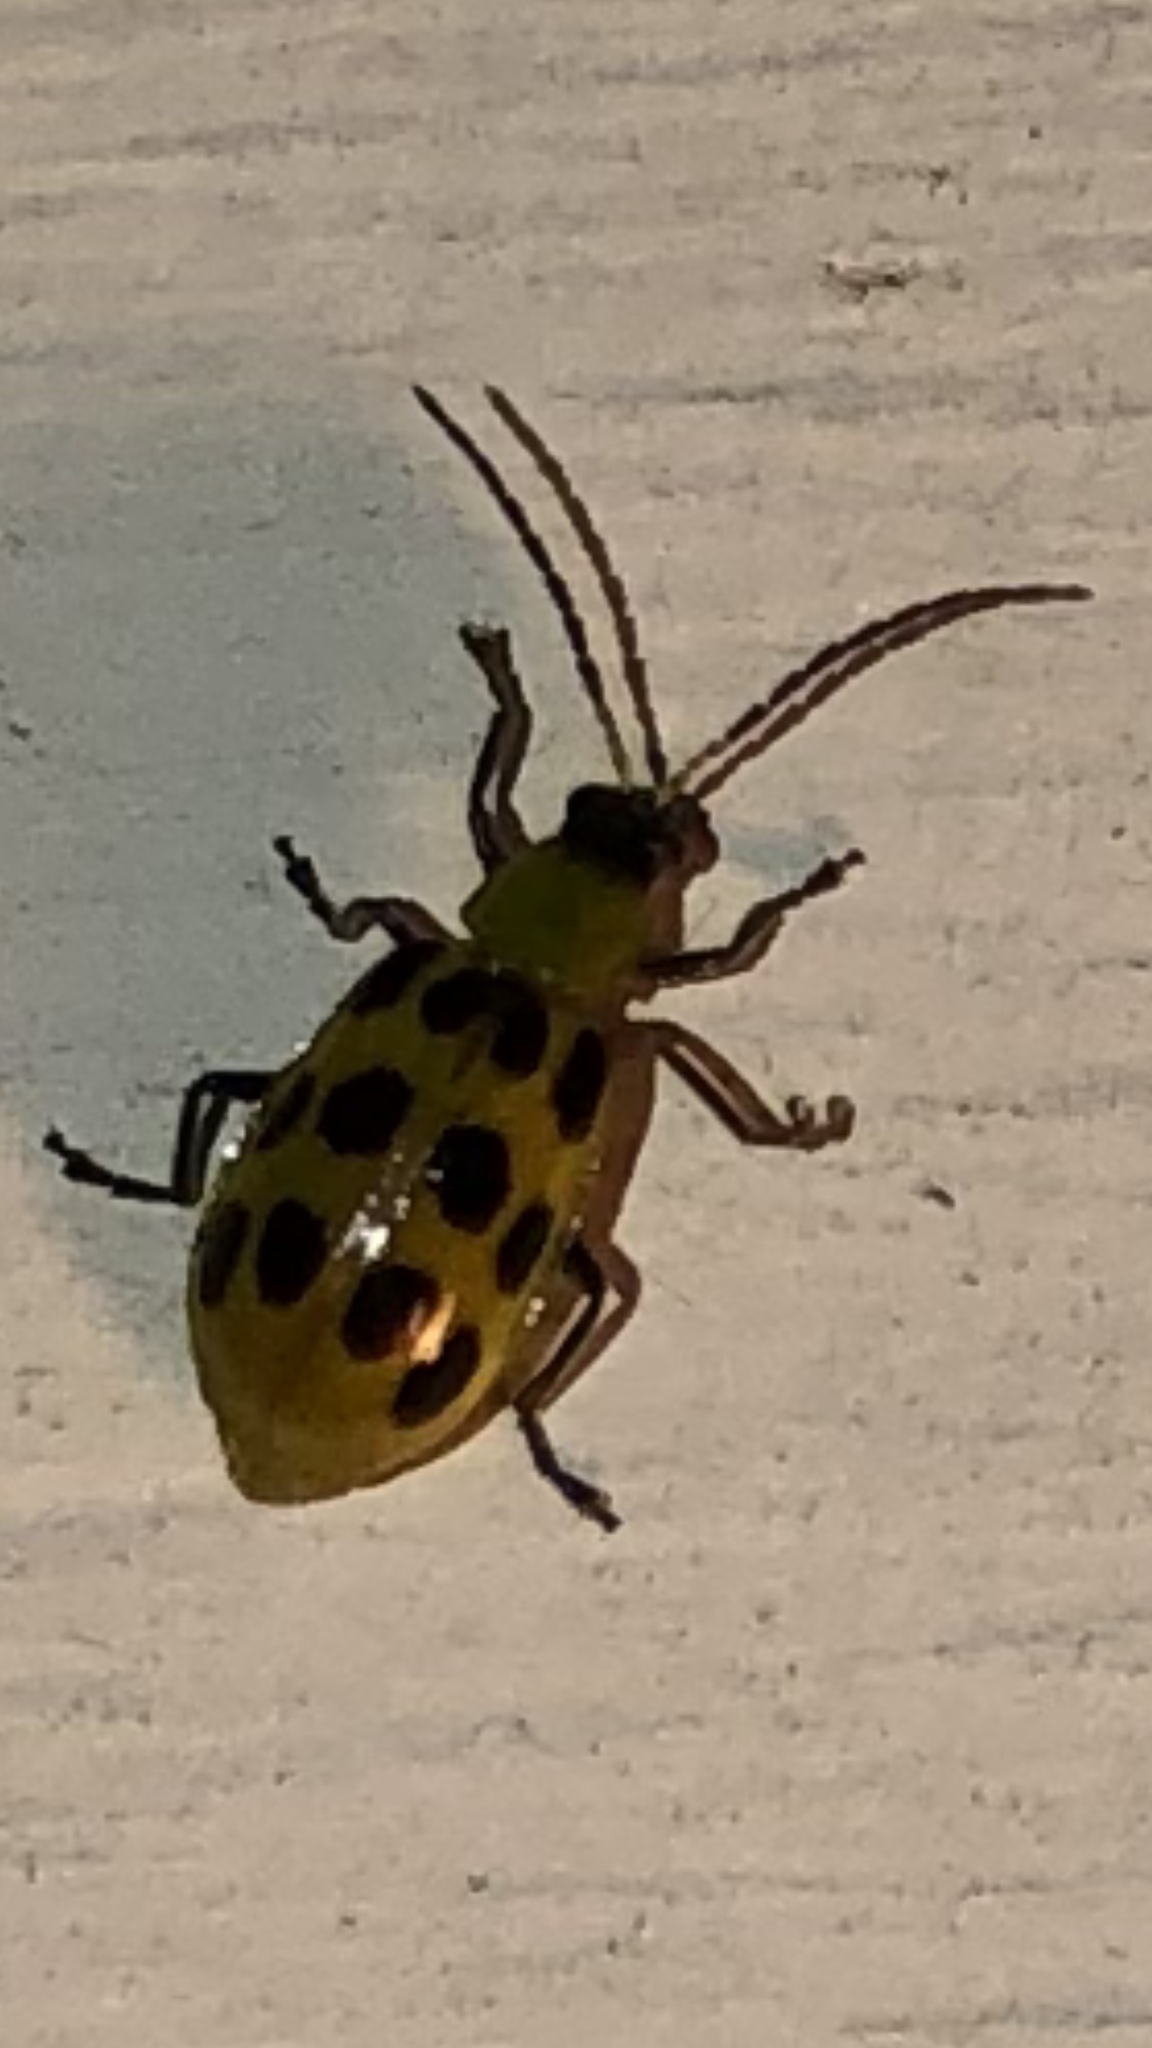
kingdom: Animalia
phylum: Arthropoda
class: Insecta
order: Coleoptera
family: Chrysomelidae
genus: Diabrotica
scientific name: Diabrotica undecimpunctata
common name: Spotted cucumber beetle
